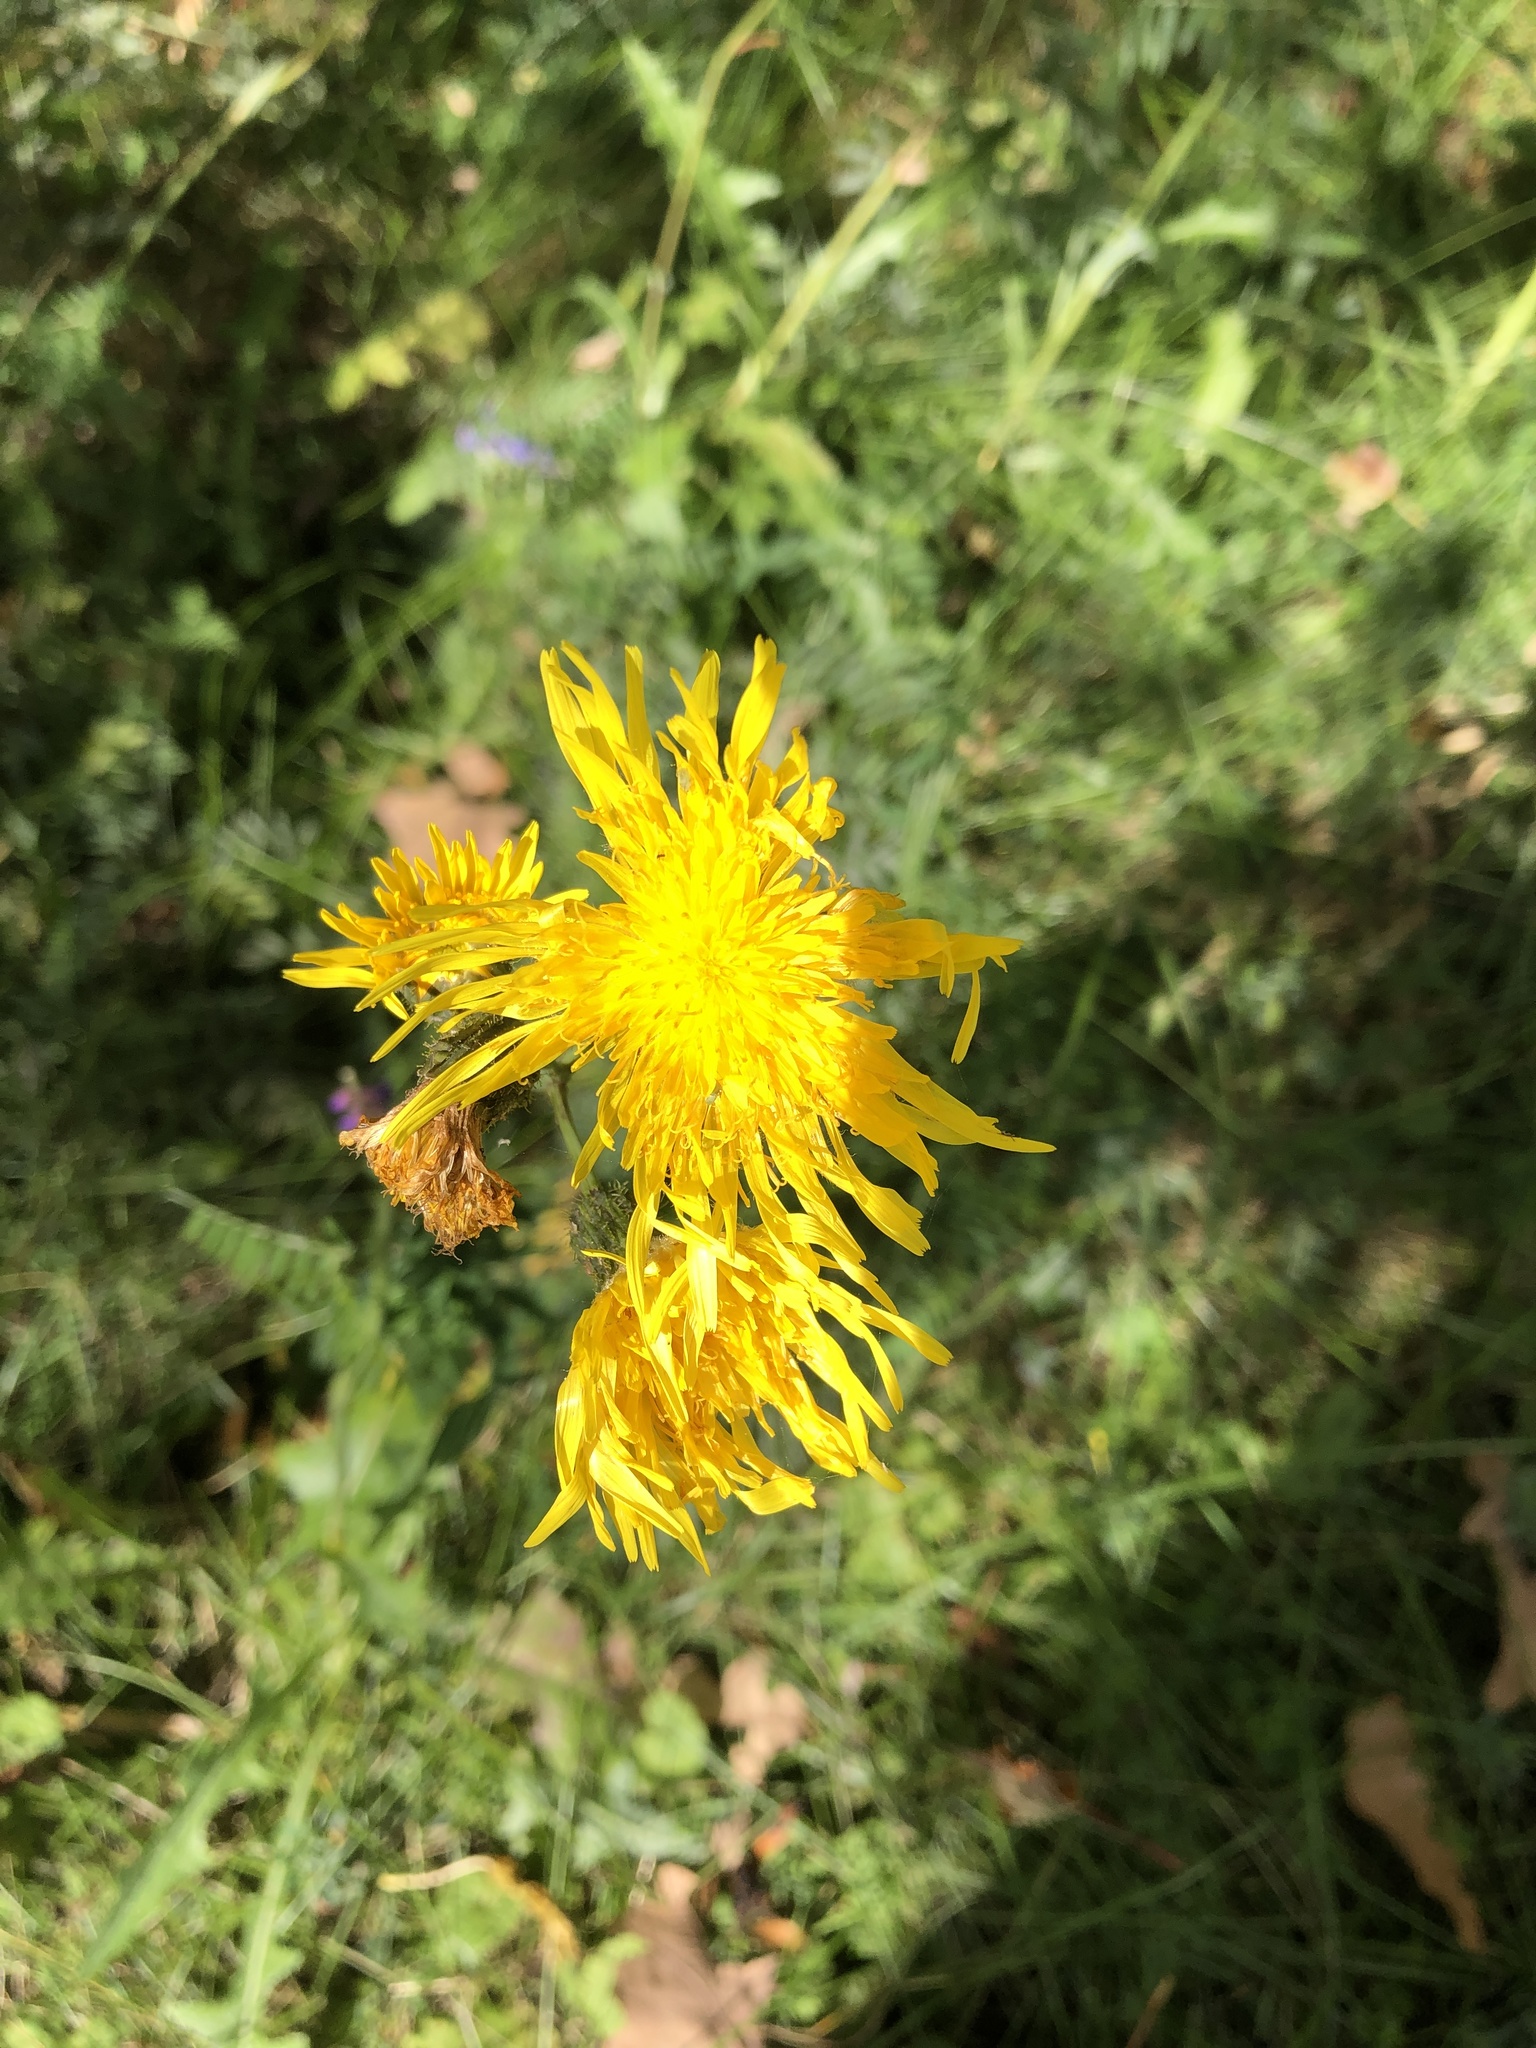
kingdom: Plantae
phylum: Tracheophyta
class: Magnoliopsida
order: Asterales
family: Asteraceae
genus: Sonchus
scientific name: Sonchus arvensis
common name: Perennial sow-thistle
